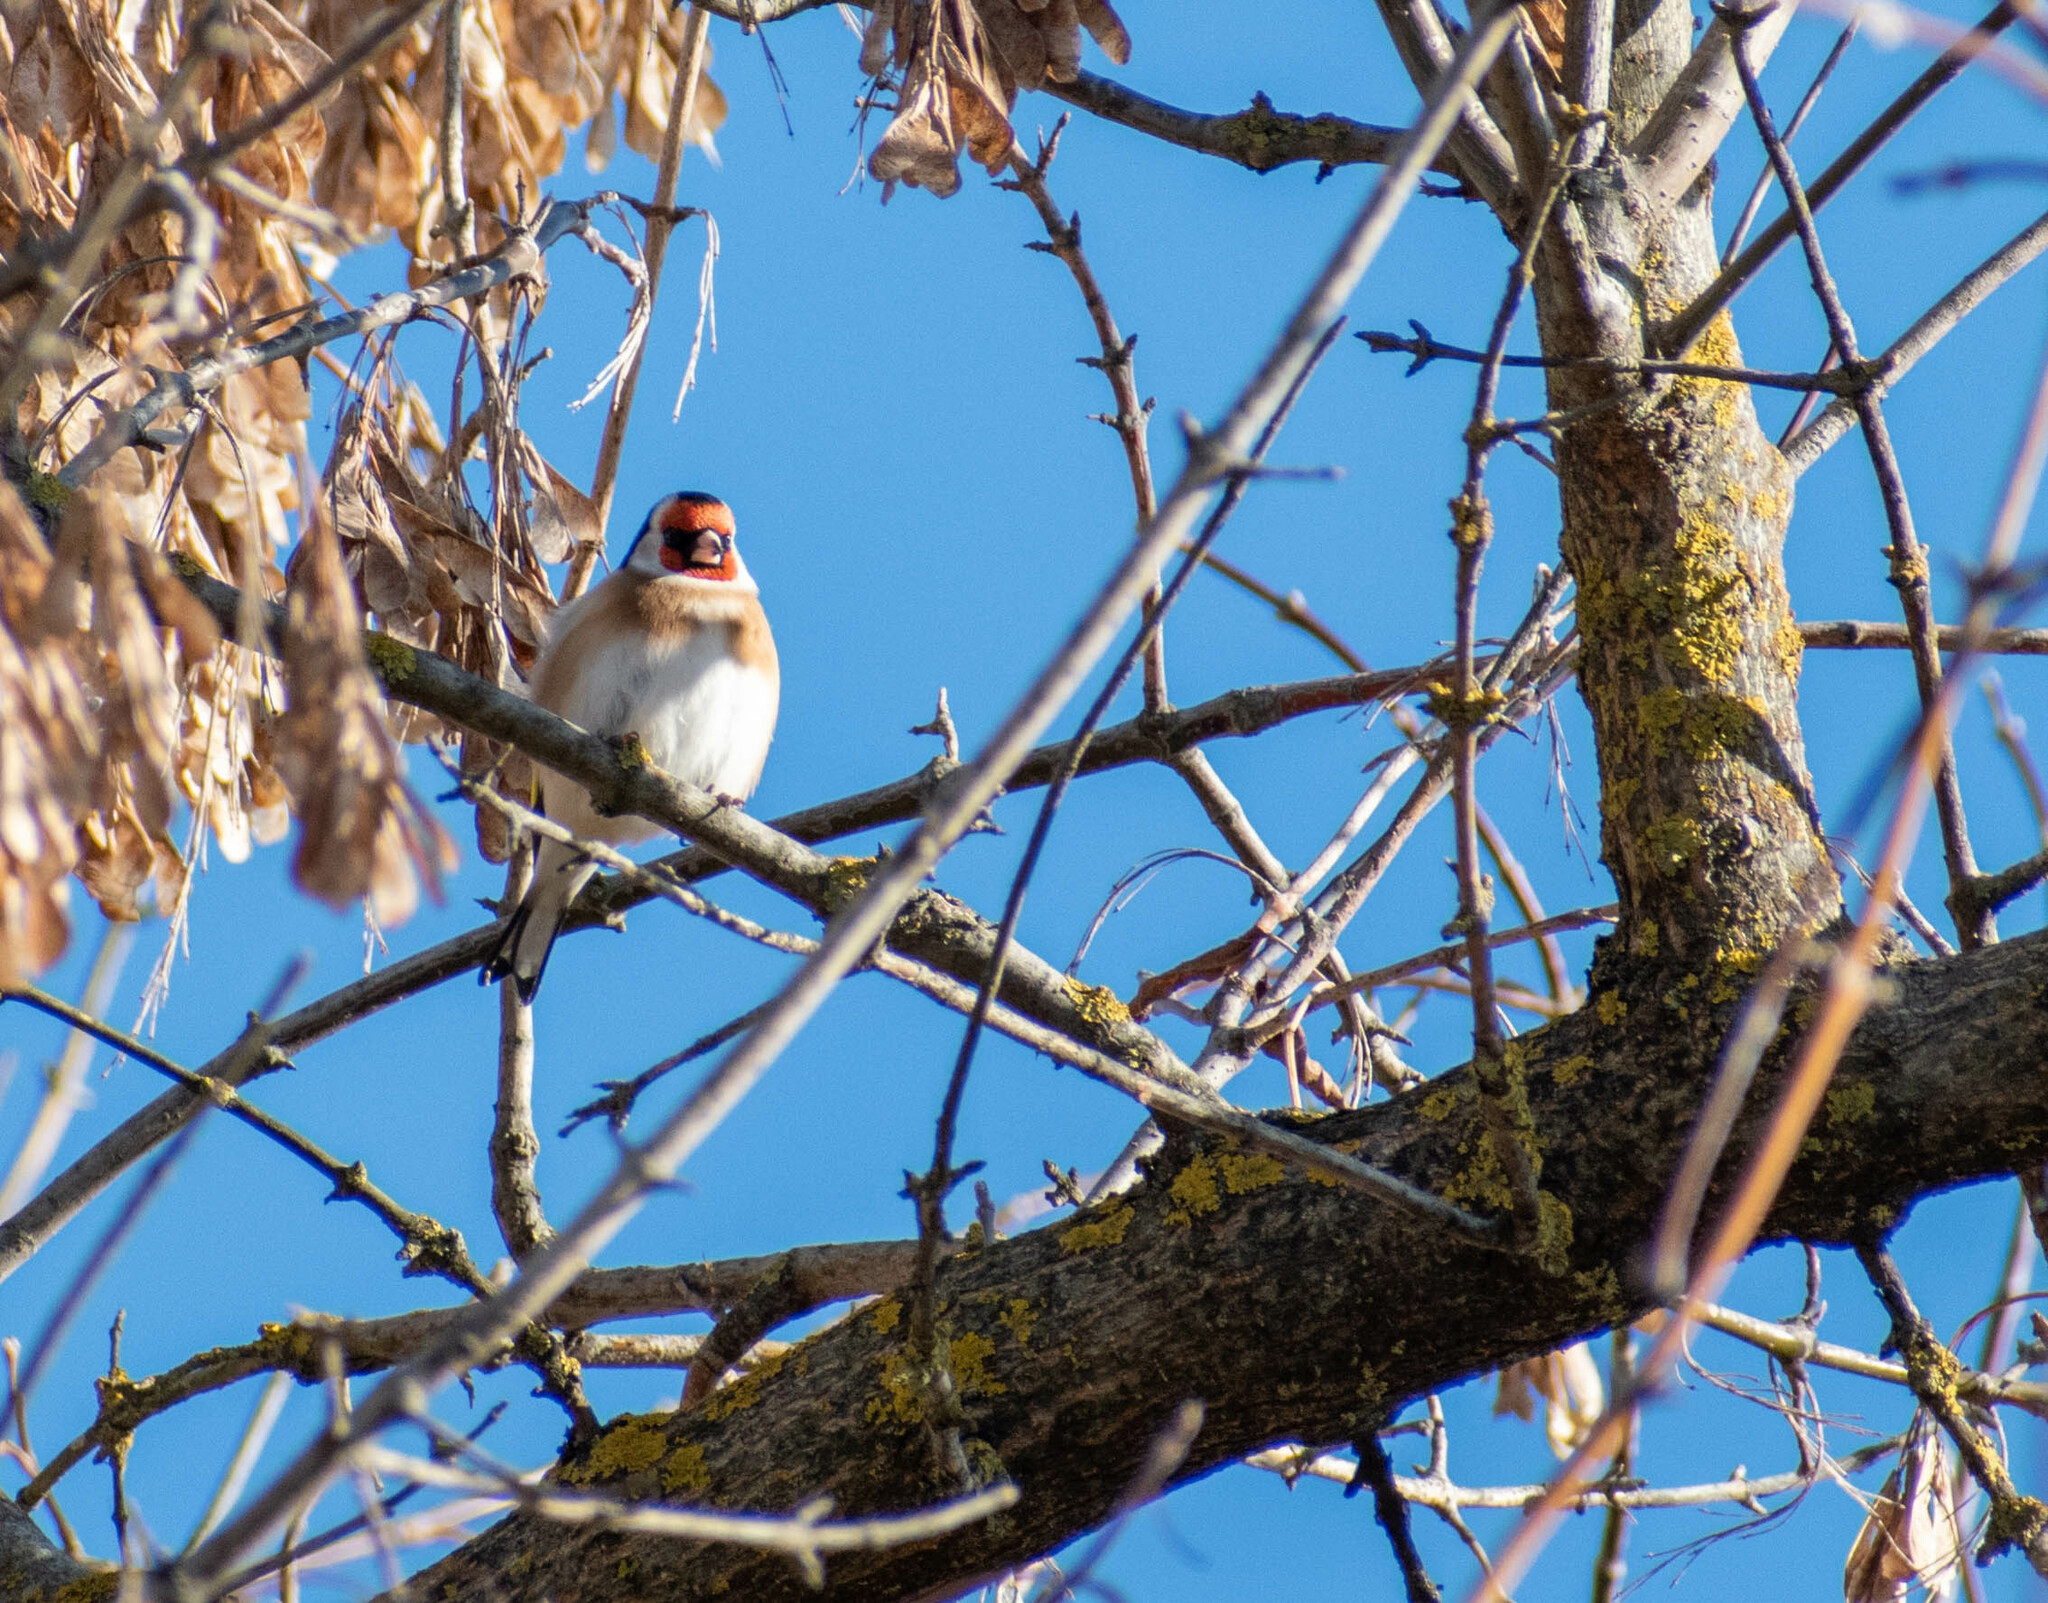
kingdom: Animalia
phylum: Chordata
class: Aves
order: Passeriformes
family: Fringillidae
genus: Carduelis
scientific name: Carduelis carduelis
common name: European goldfinch
